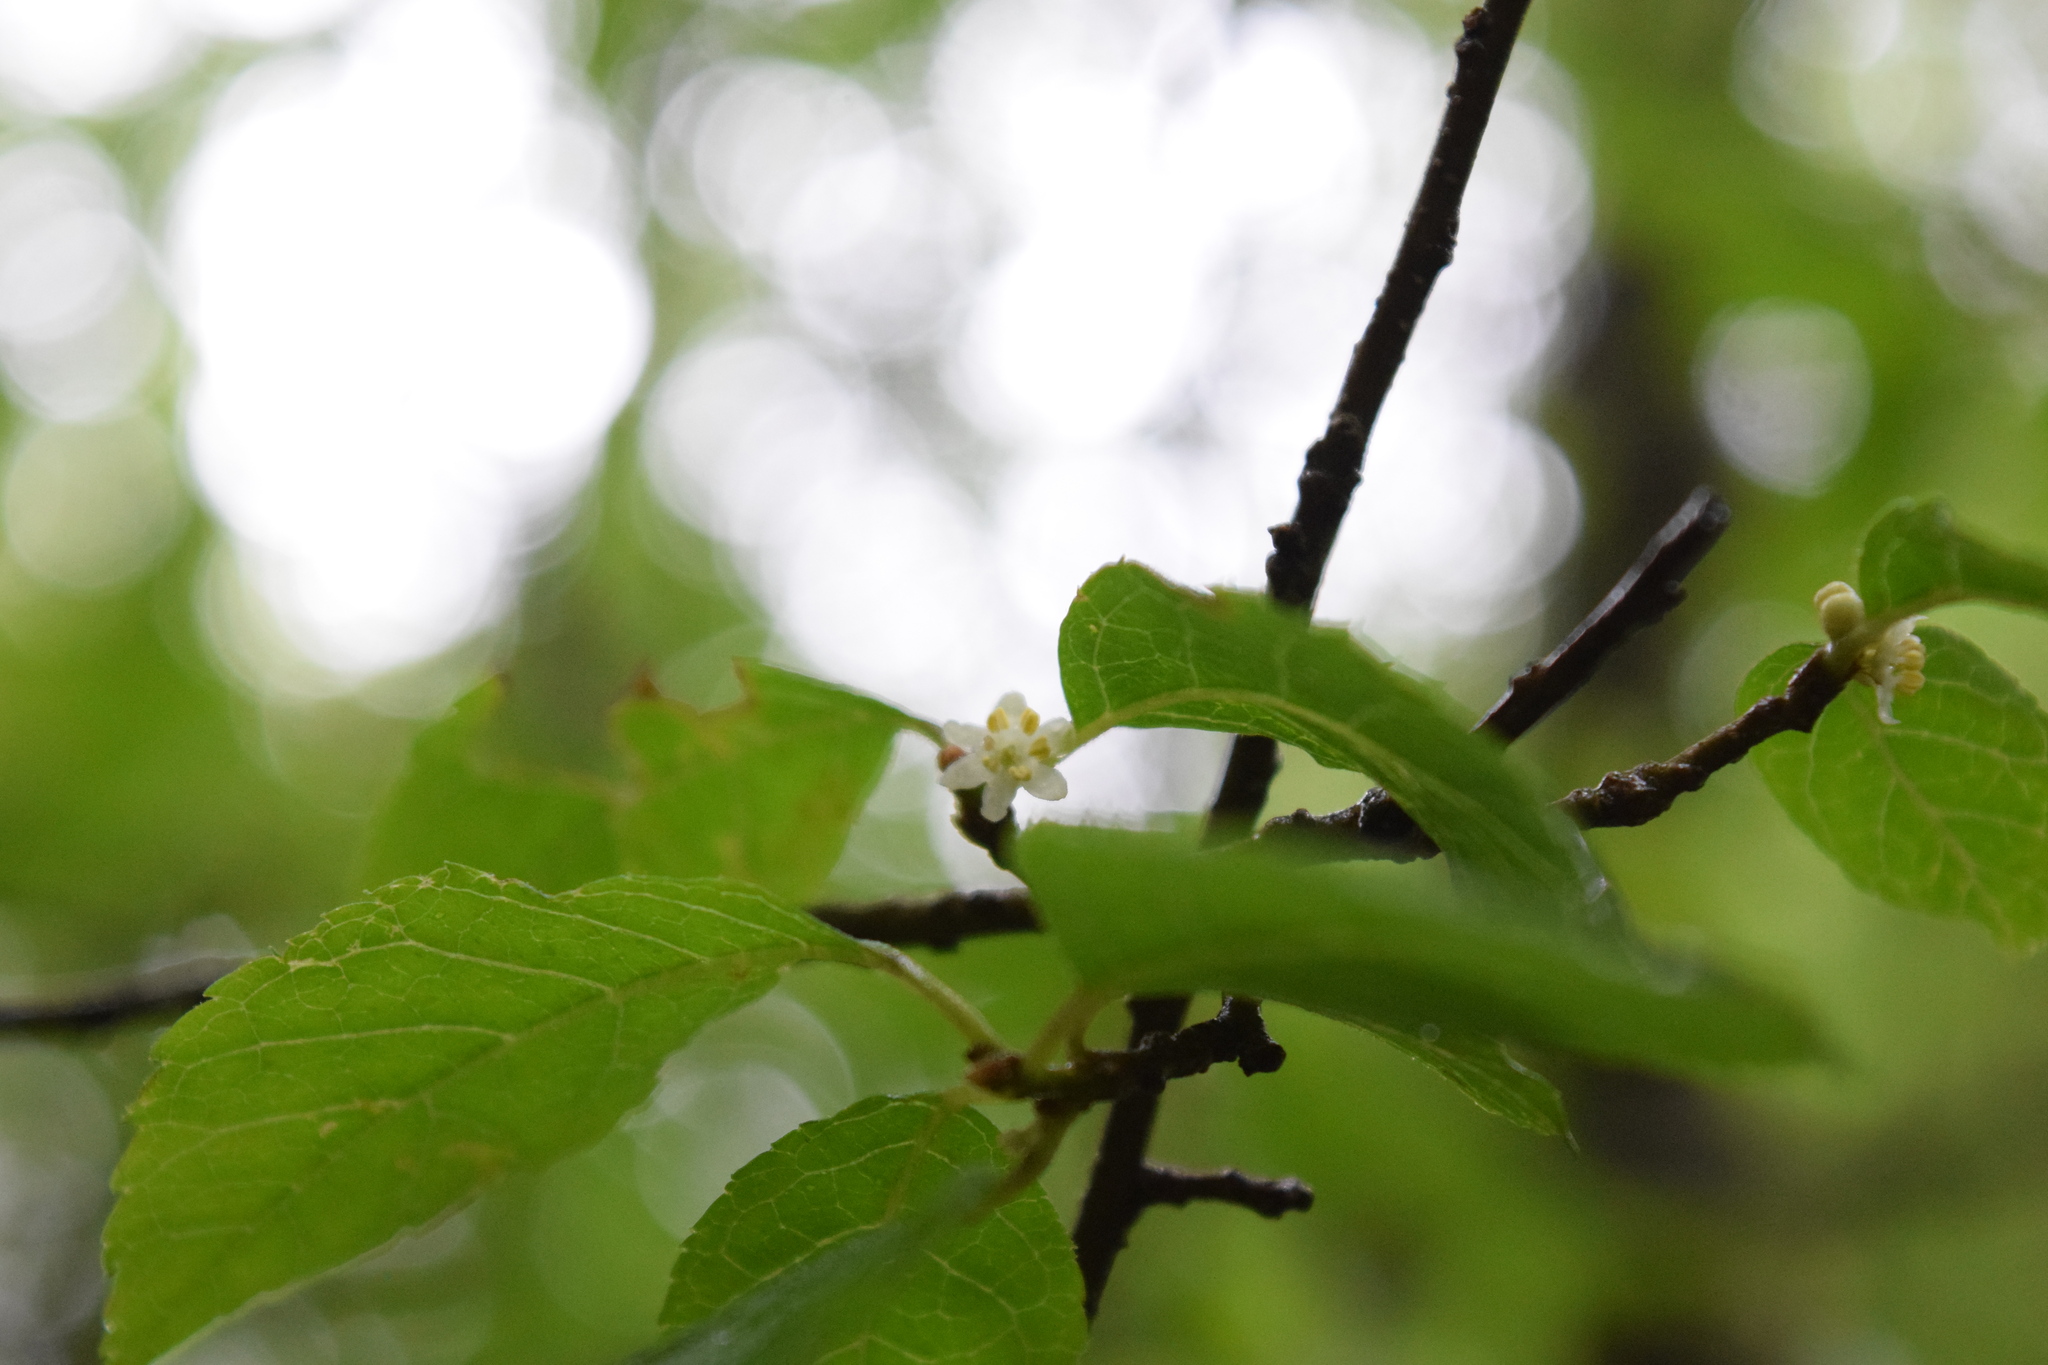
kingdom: Plantae
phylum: Tracheophyta
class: Magnoliopsida
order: Aquifoliales
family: Aquifoliaceae
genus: Ilex
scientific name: Ilex verticillata
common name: Virginia winterberry
